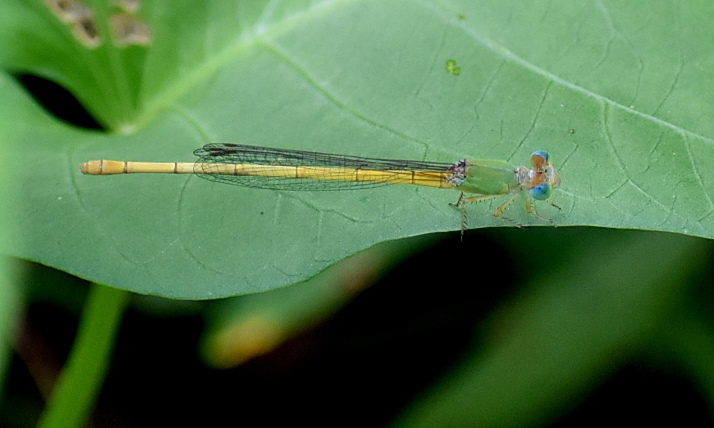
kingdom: Animalia
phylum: Arthropoda
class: Insecta
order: Odonata
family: Coenagrionidae
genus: Ceriagrion
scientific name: Ceriagrion coromandelianum
